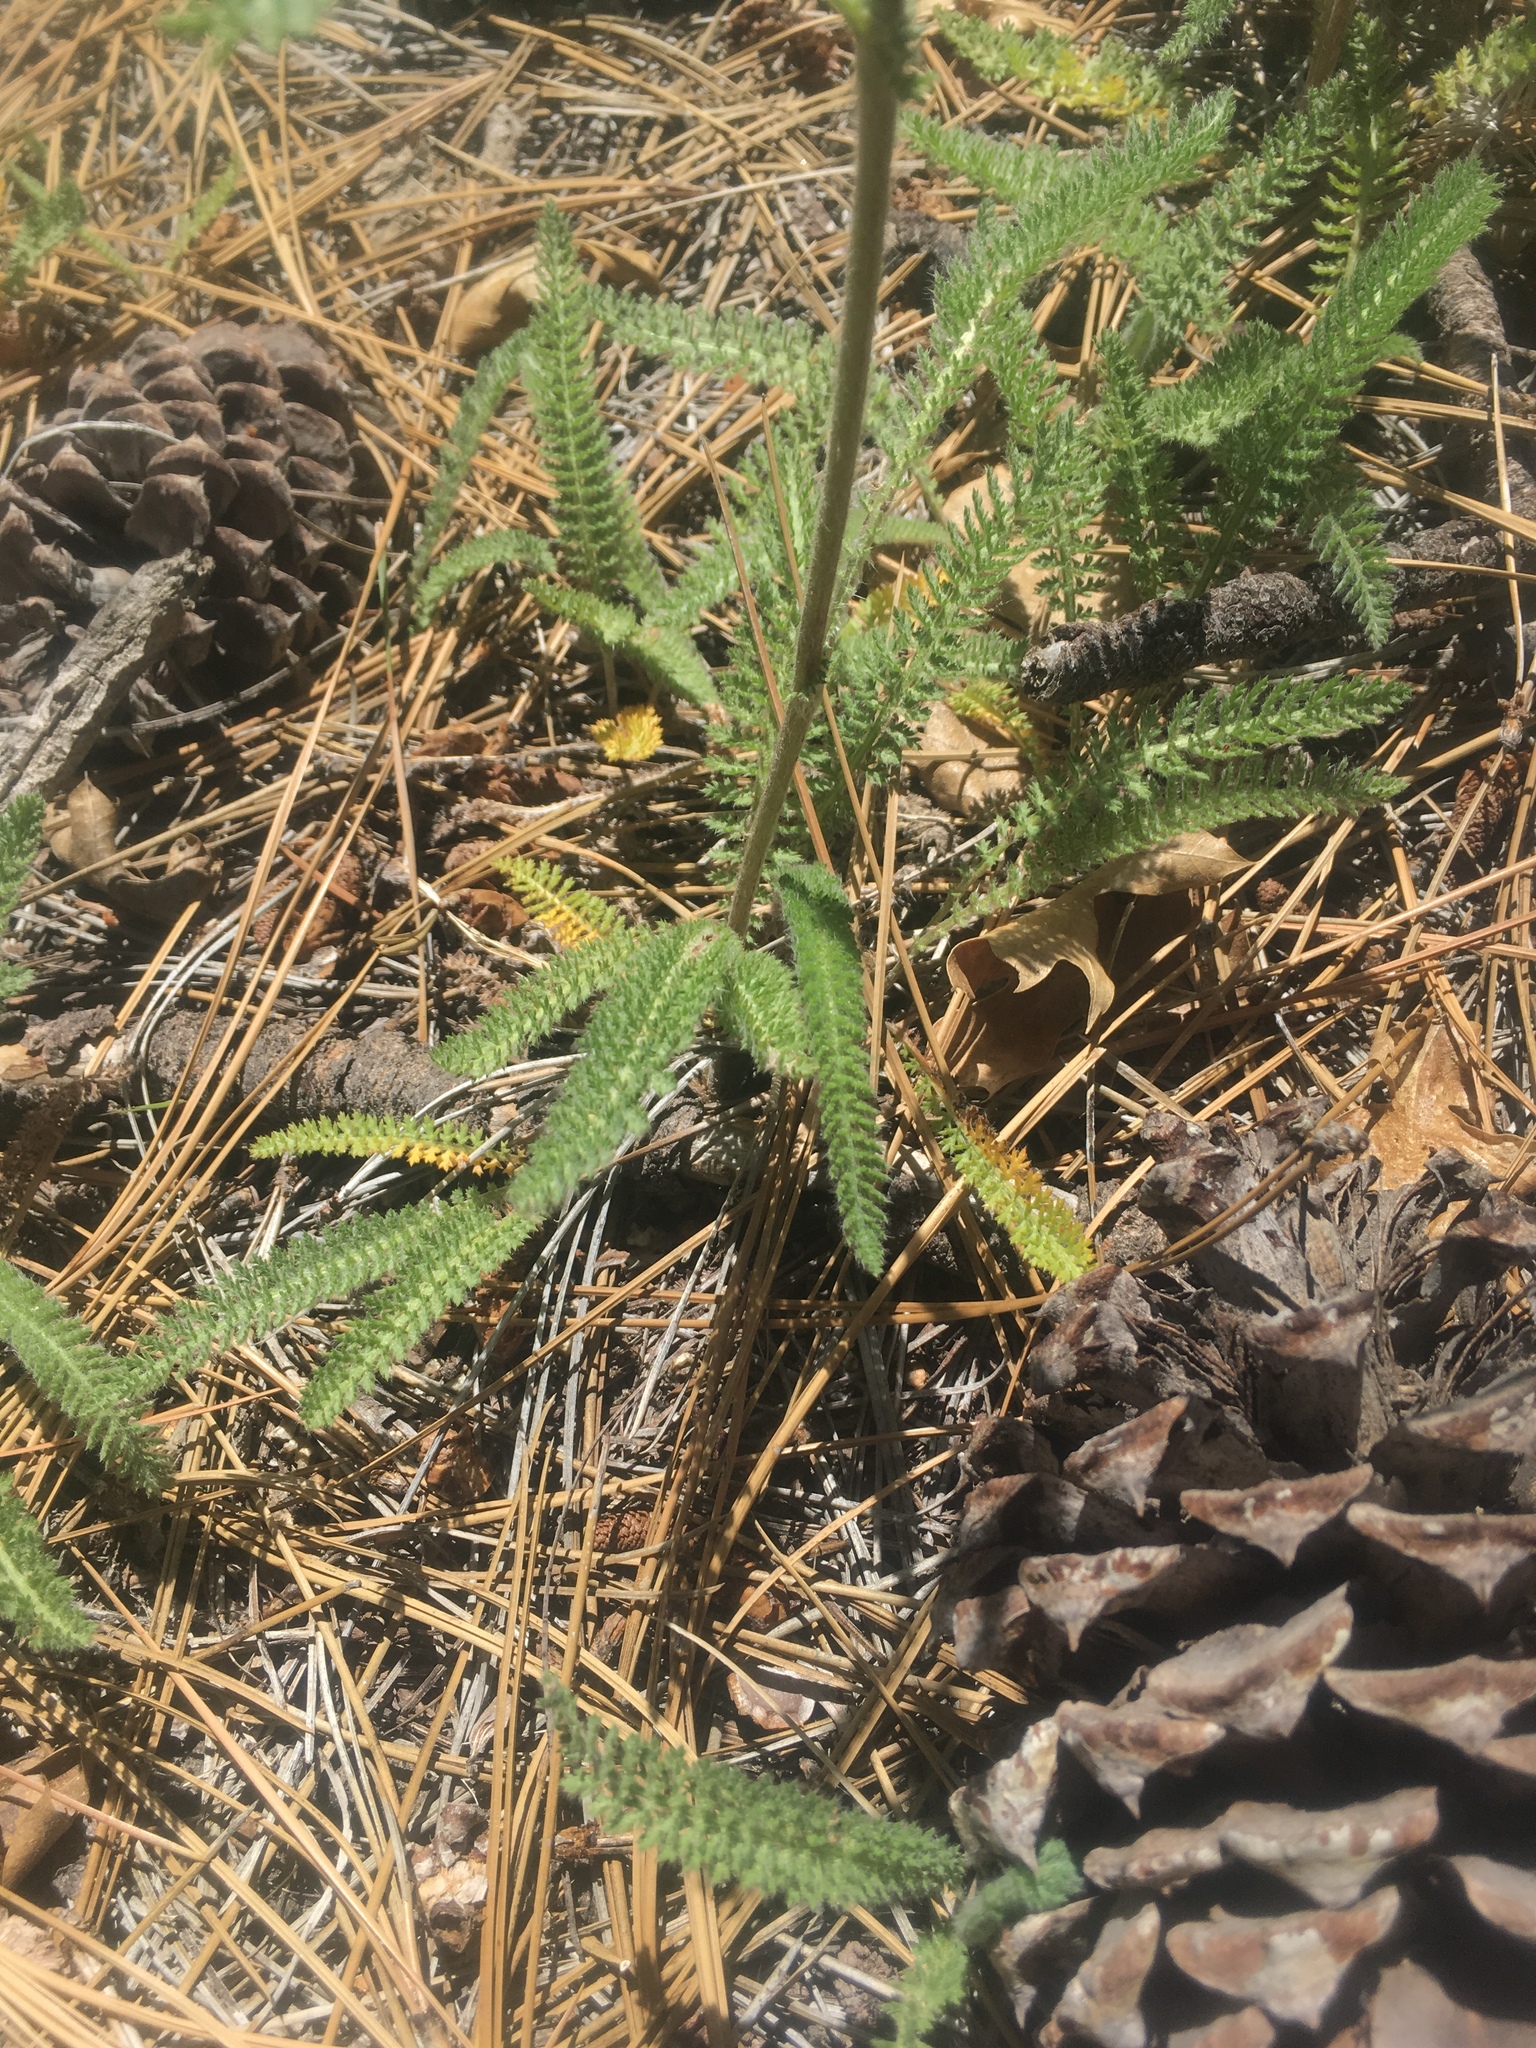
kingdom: Plantae
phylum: Tracheophyta
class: Magnoliopsida
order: Asterales
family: Asteraceae
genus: Achillea
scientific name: Achillea millefolium
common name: Yarrow
